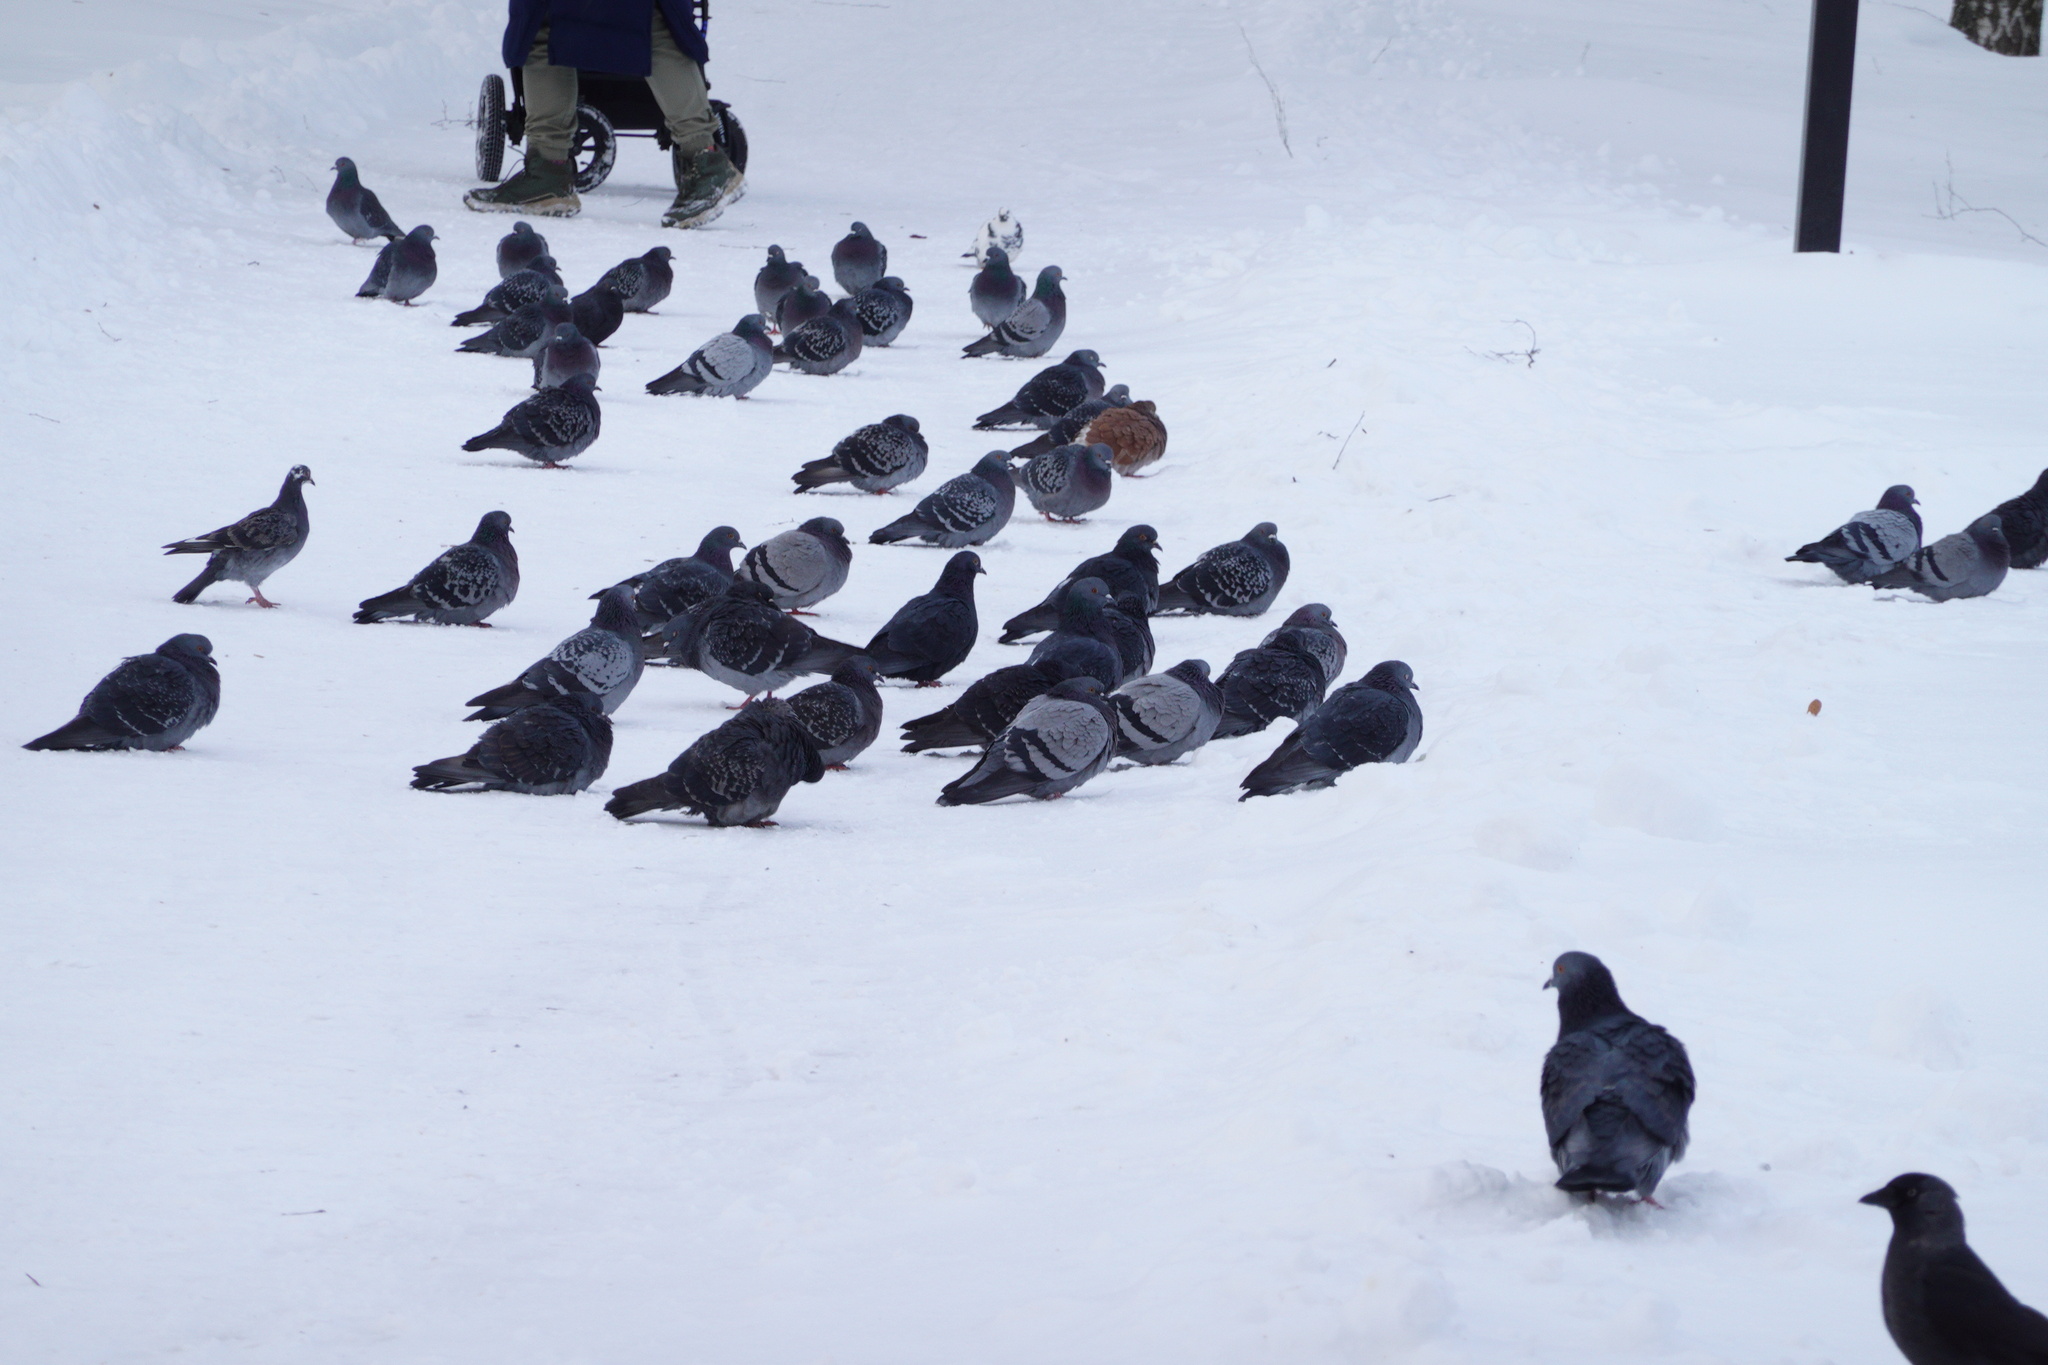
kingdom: Animalia
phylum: Chordata
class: Aves
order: Columbiformes
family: Columbidae
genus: Columba
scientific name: Columba livia
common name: Rock pigeon
